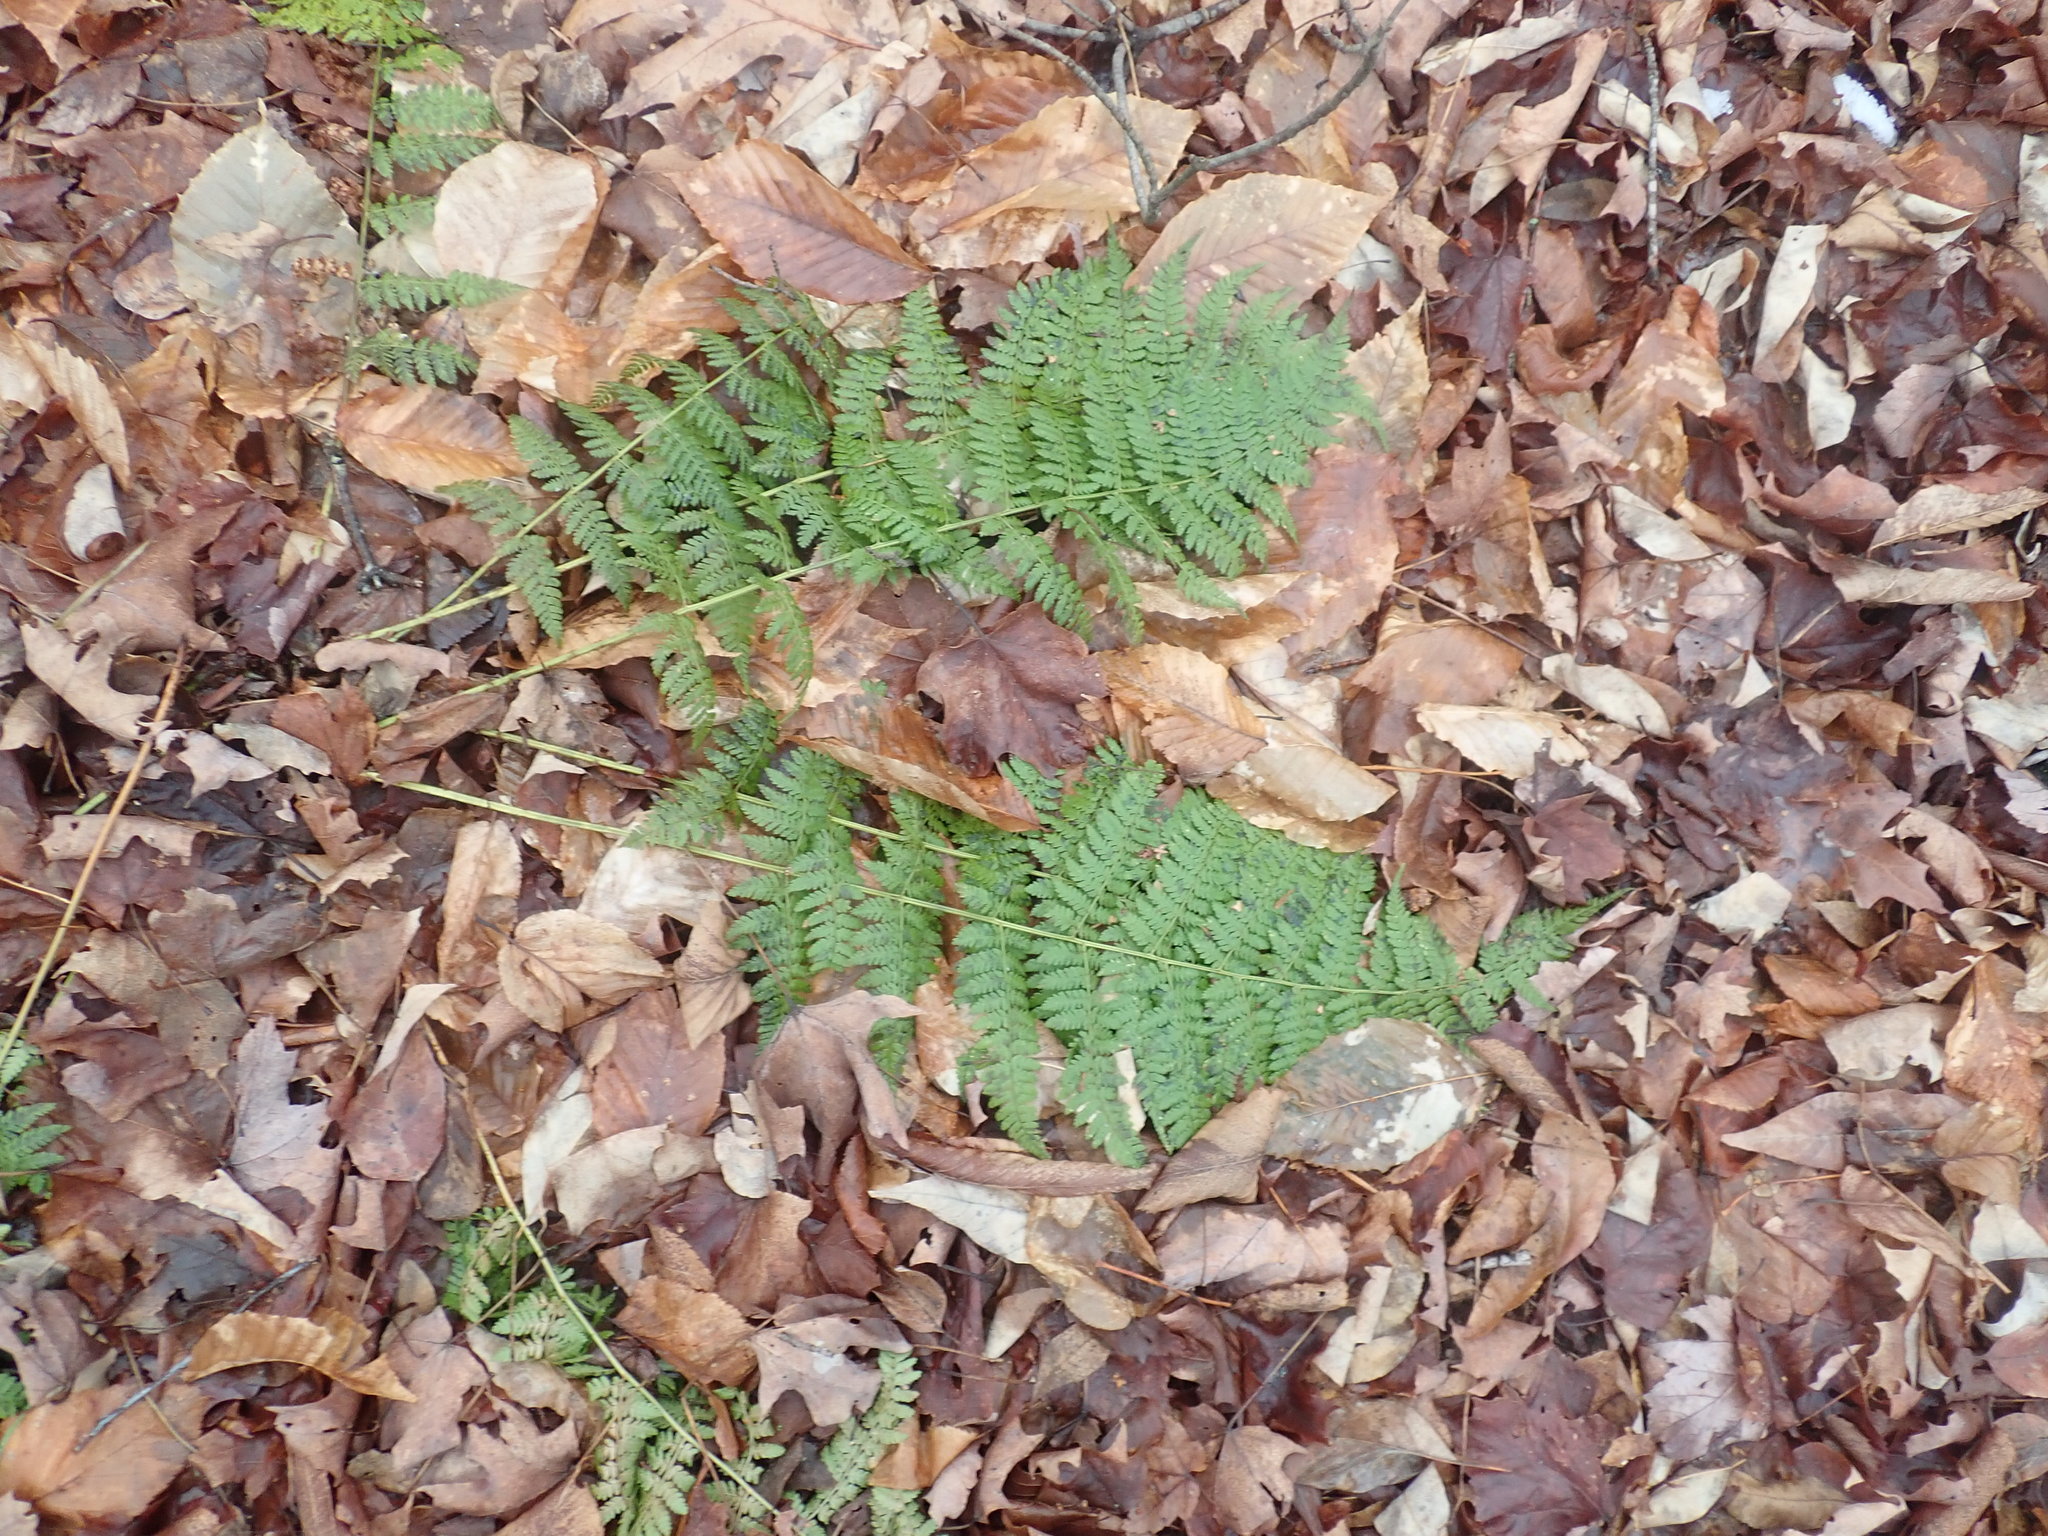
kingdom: Plantae
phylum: Tracheophyta
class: Polypodiopsida
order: Polypodiales
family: Dryopteridaceae
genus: Dryopteris
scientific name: Dryopteris intermedia
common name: Evergreen wood fern
